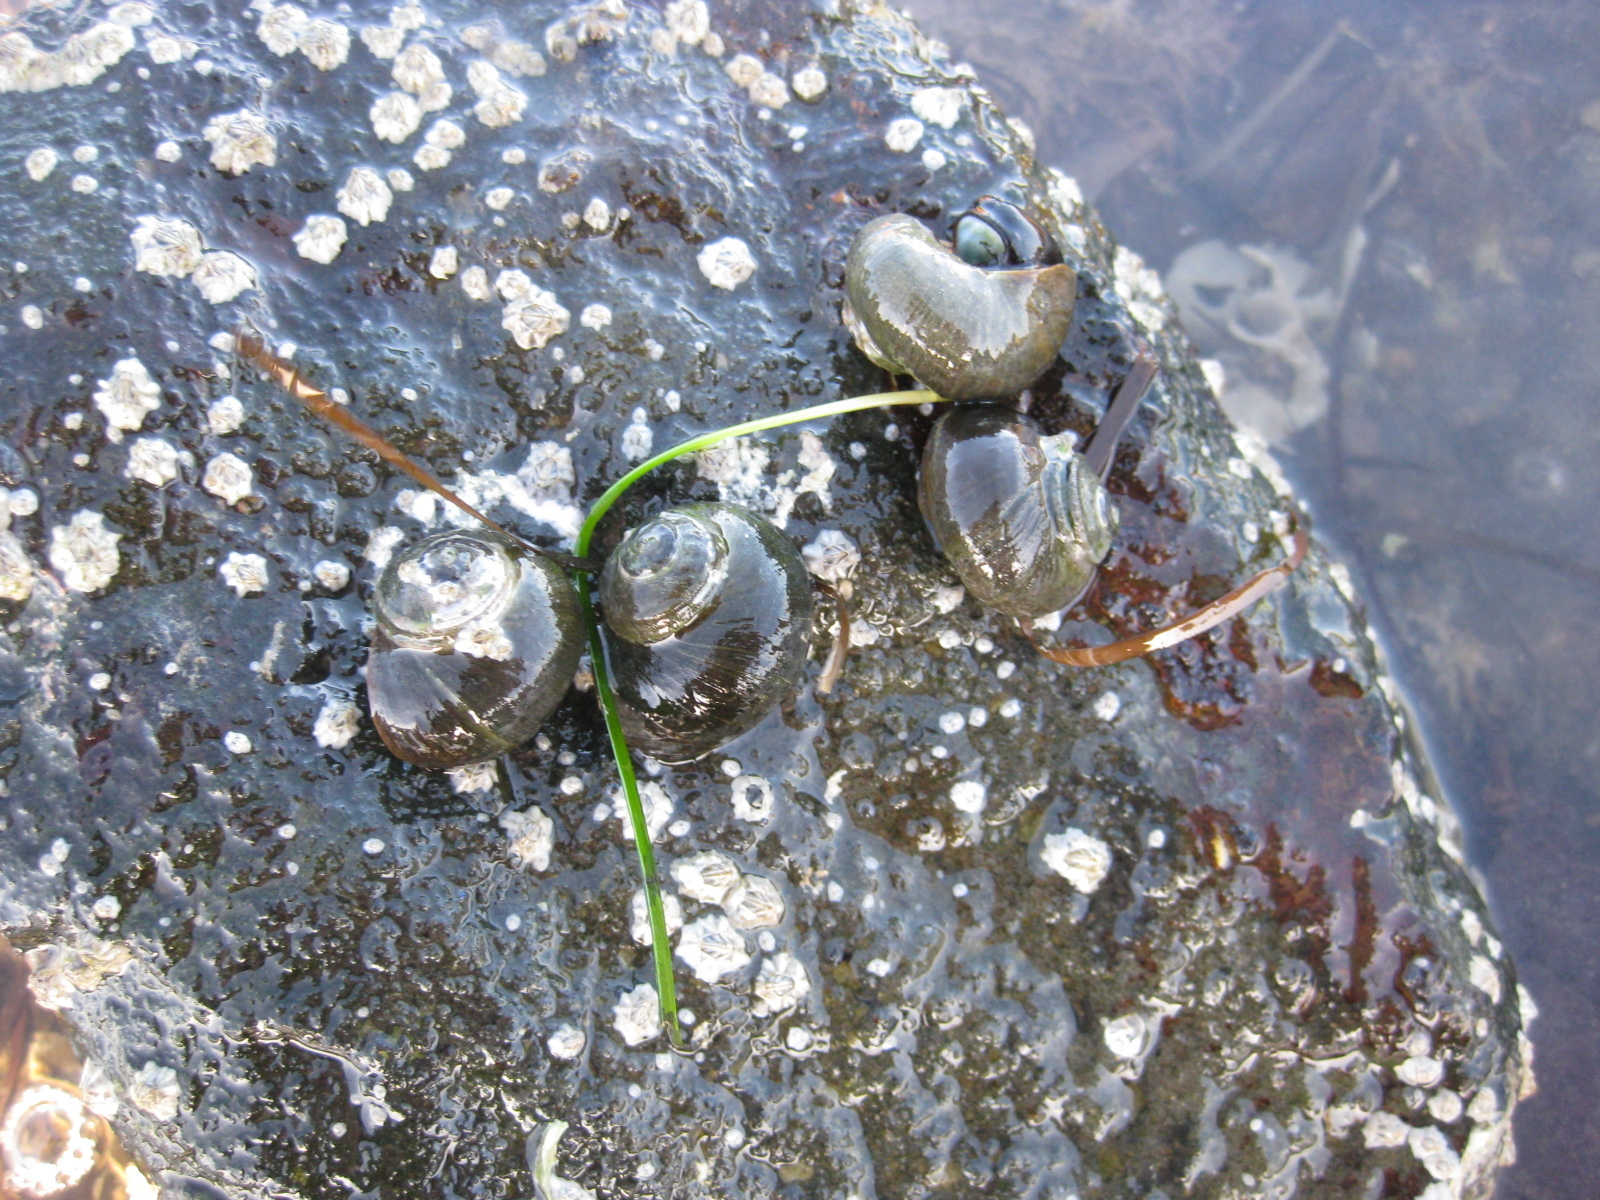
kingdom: Animalia
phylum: Mollusca
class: Gastropoda
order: Trochida
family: Turbinidae
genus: Lunella
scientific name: Lunella smaragda
